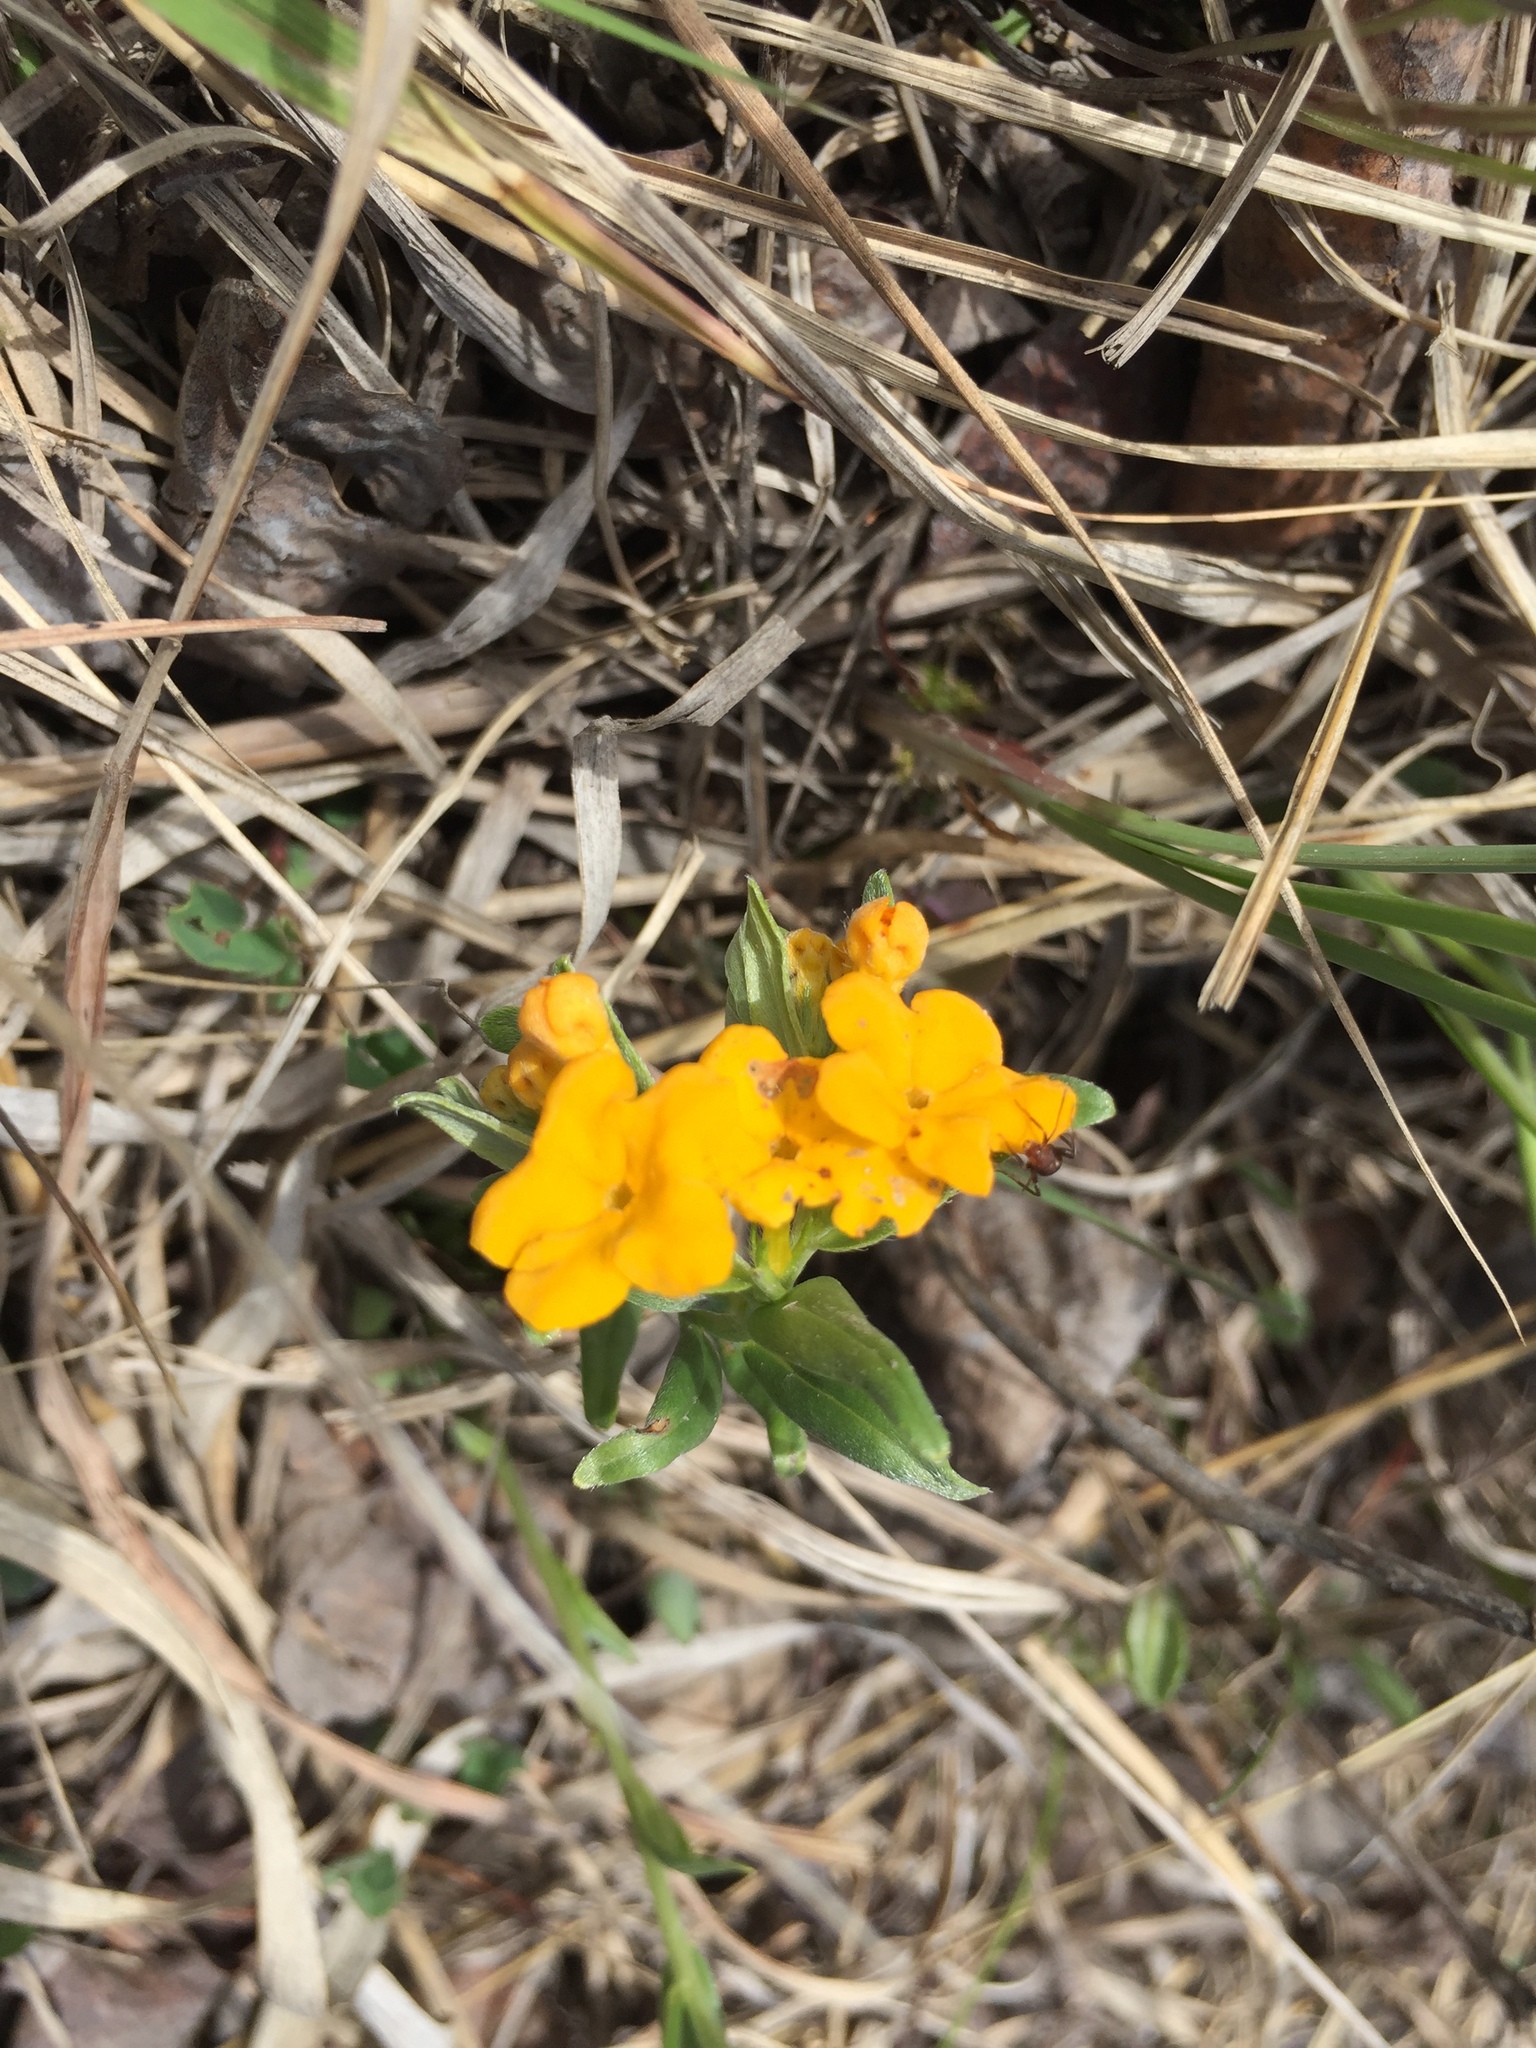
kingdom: Plantae
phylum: Tracheophyta
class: Magnoliopsida
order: Boraginales
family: Boraginaceae
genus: Lithospermum
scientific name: Lithospermum canescens
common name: Hoary puccoon
